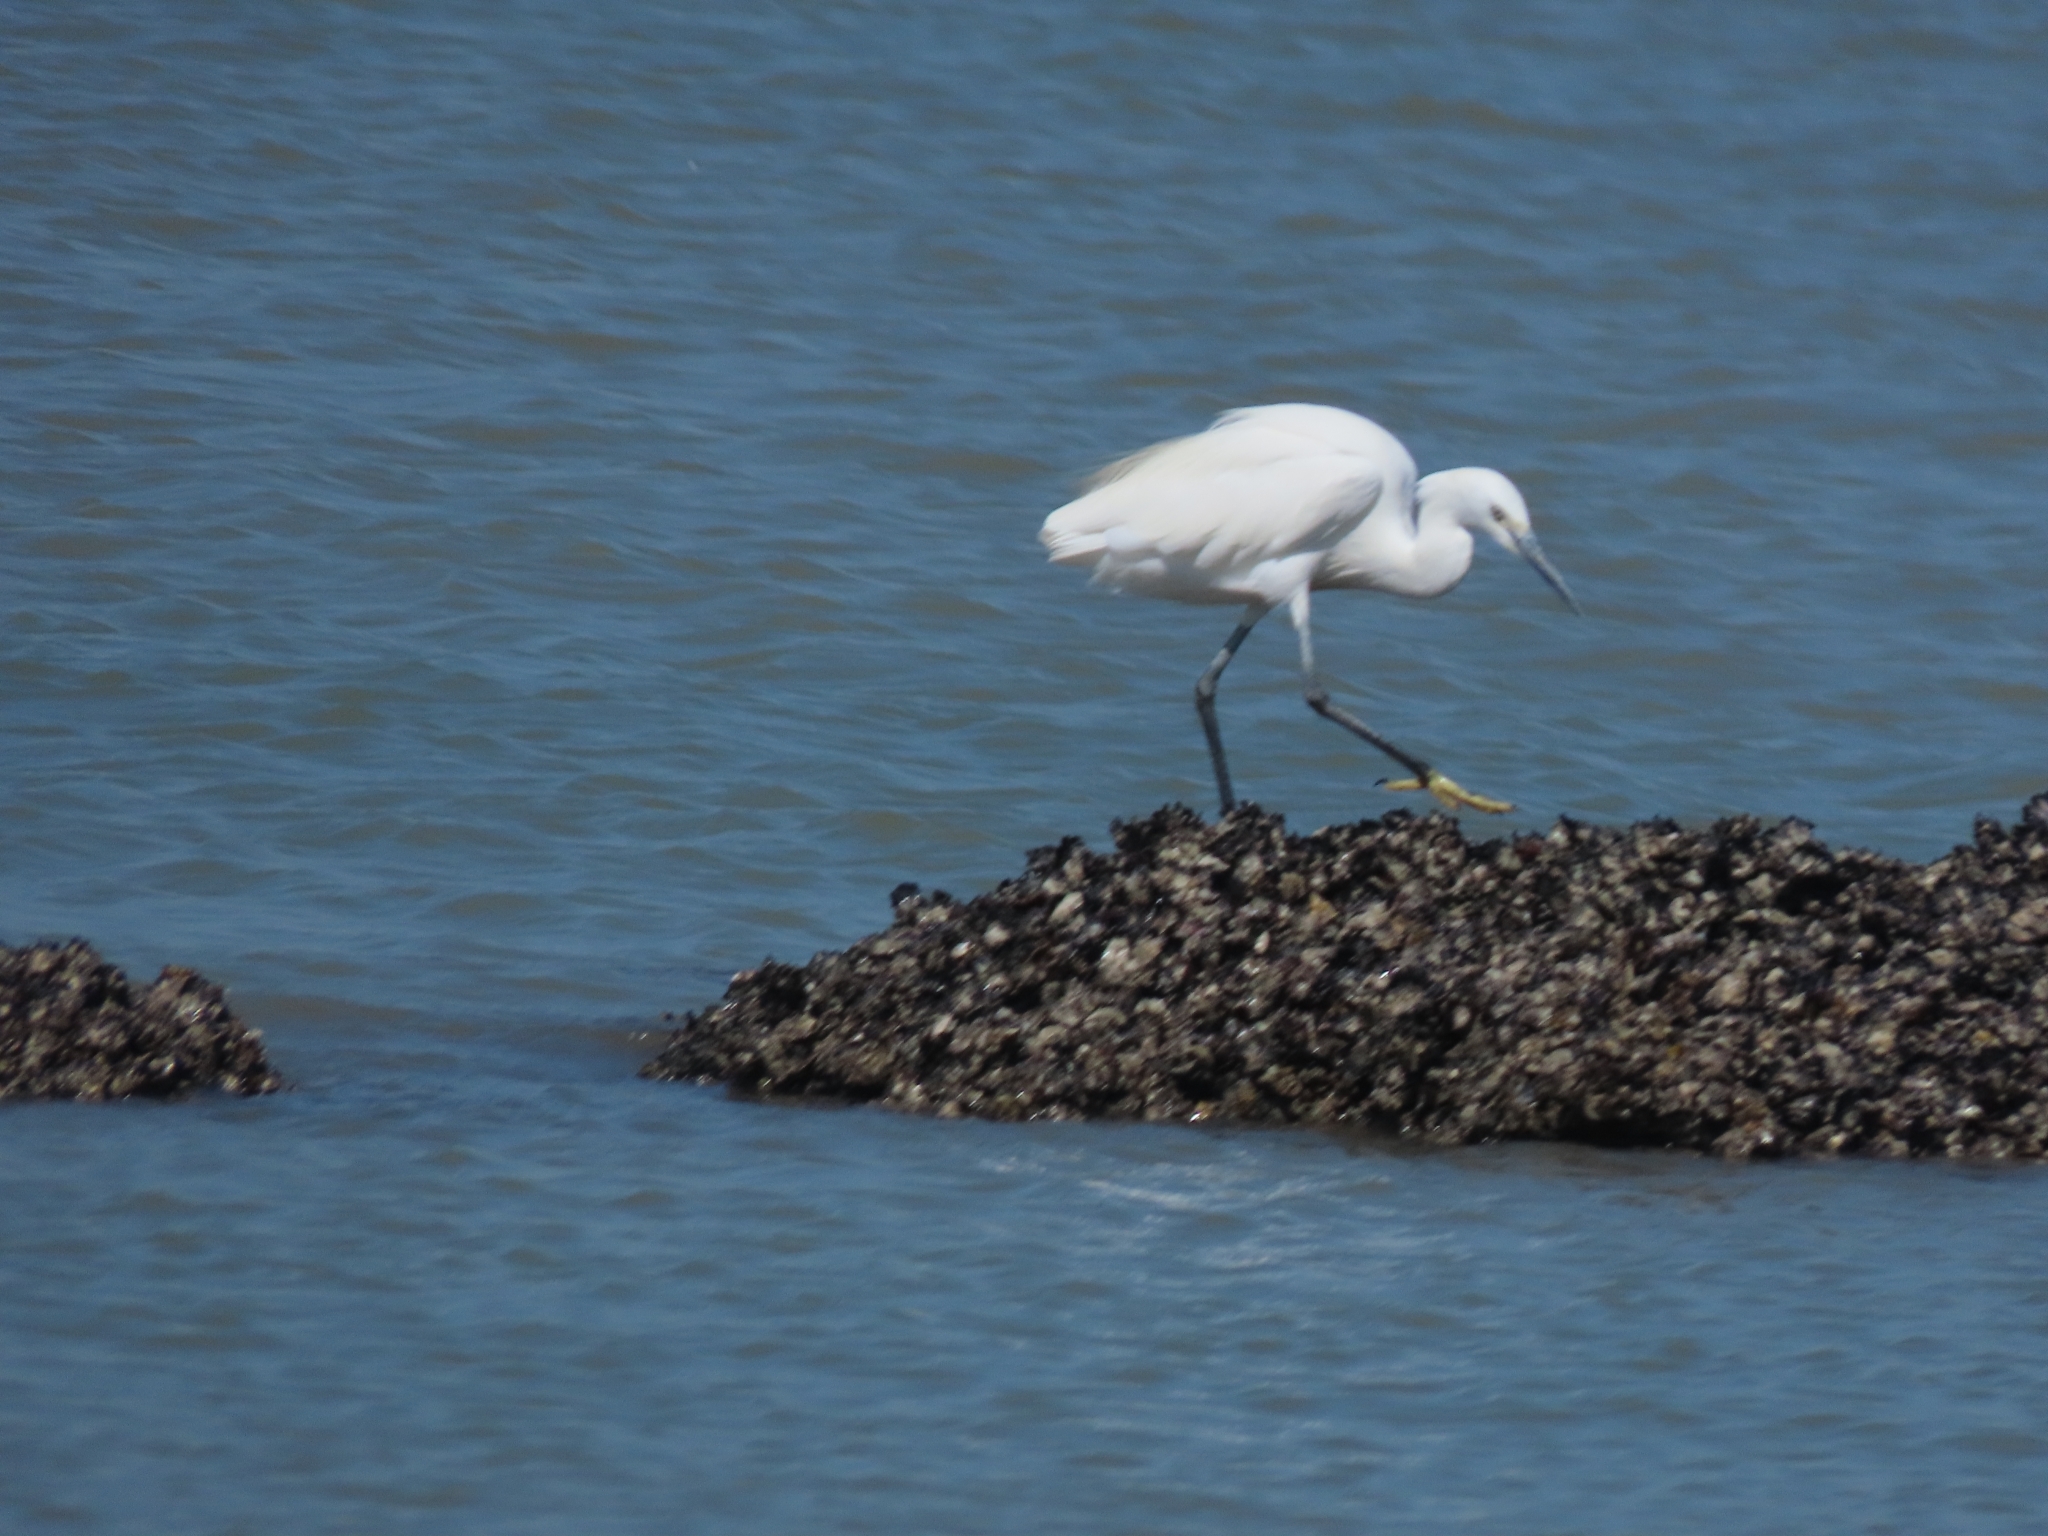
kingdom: Animalia
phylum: Chordata
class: Aves
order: Pelecaniformes
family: Ardeidae
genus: Egretta
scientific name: Egretta garzetta
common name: Little egret
